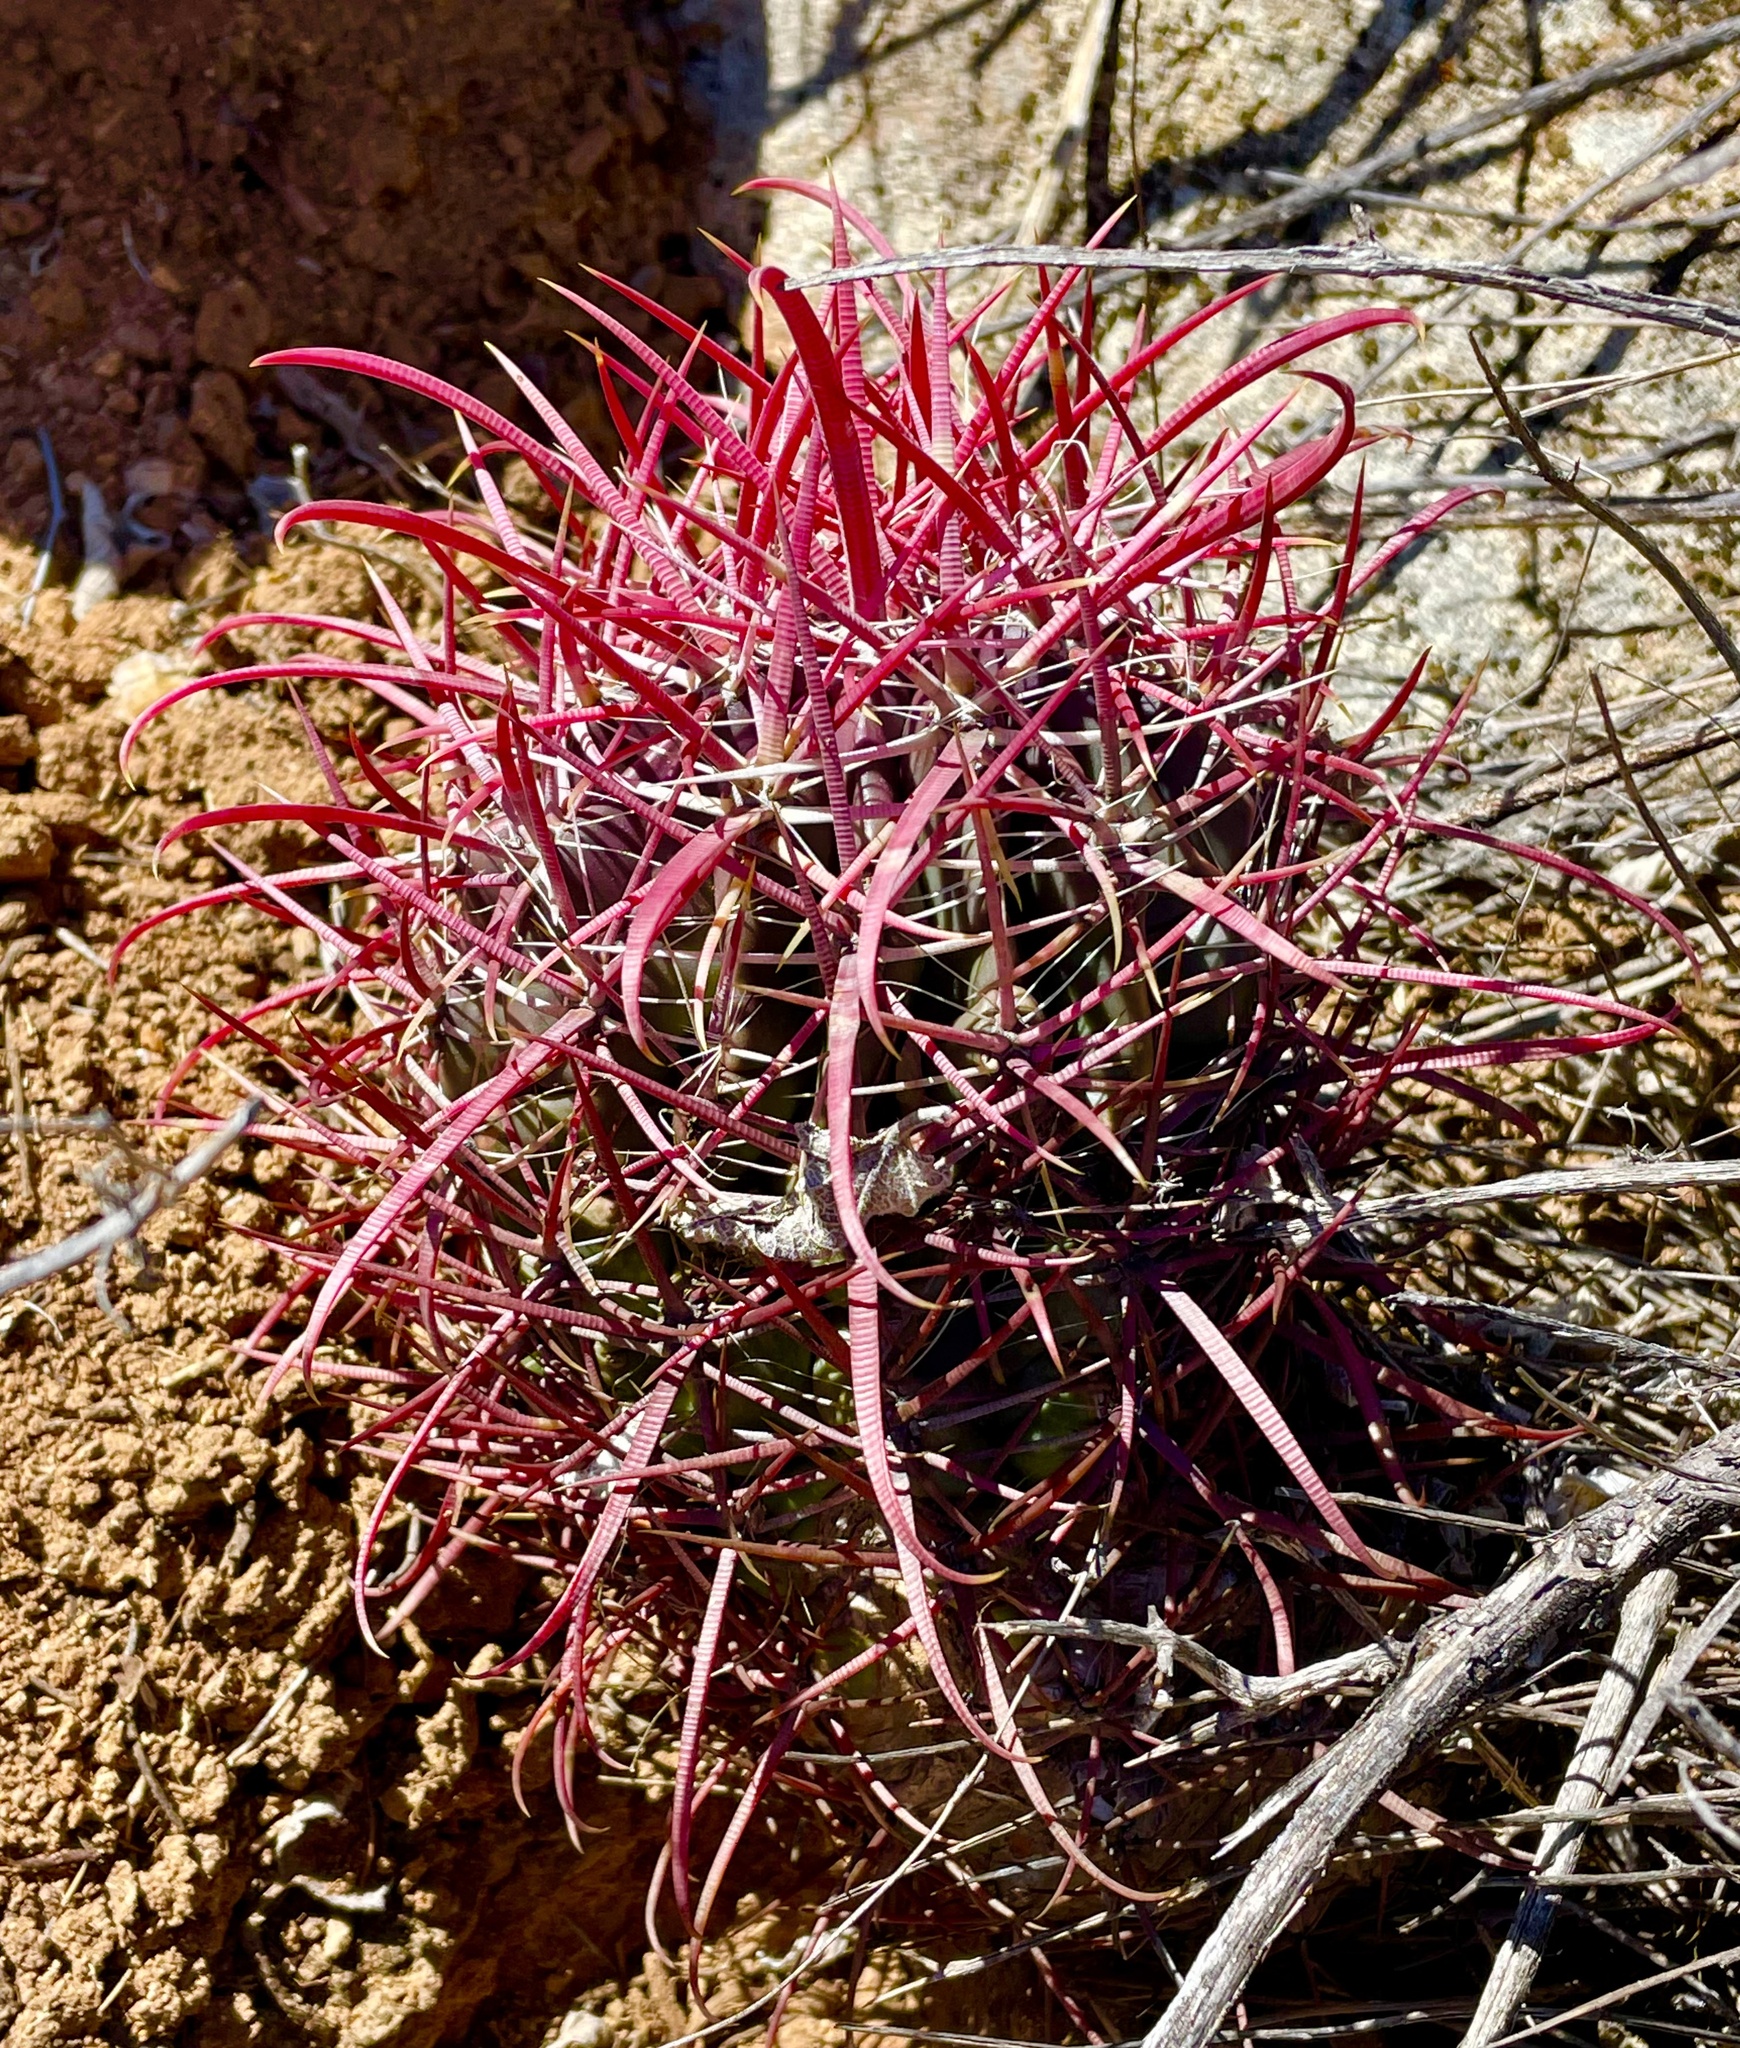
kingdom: Plantae
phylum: Tracheophyta
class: Magnoliopsida
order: Caryophyllales
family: Cactaceae
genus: Ferocactus
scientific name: Ferocactus gracilis
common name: Fire barrel cactus
